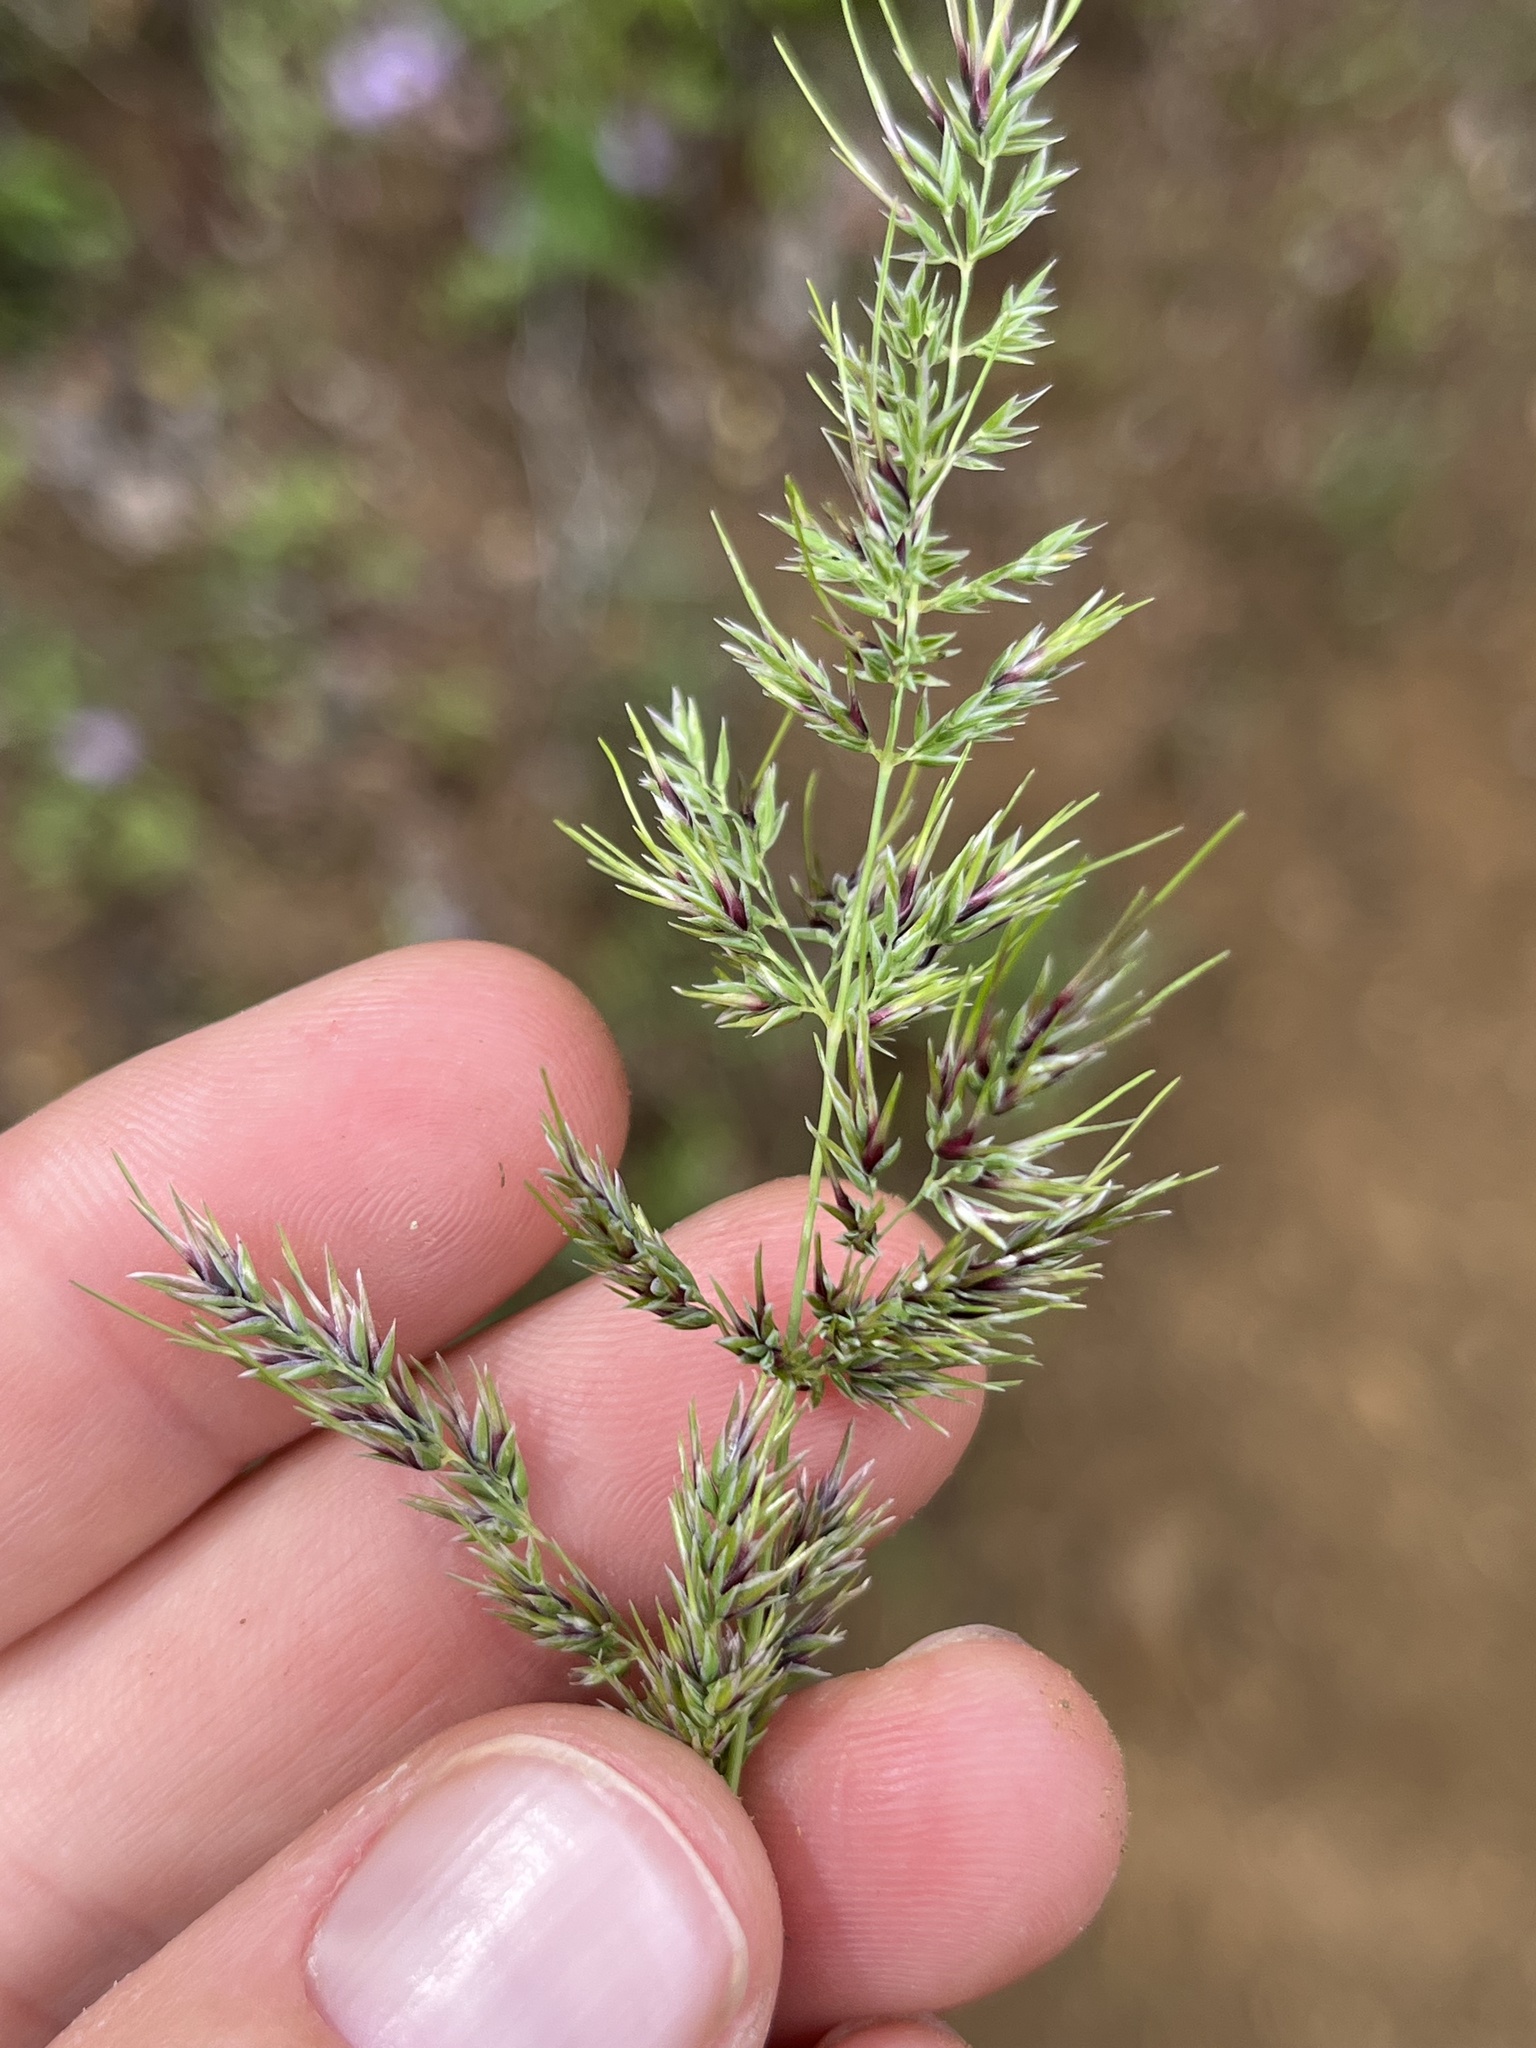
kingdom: Plantae
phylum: Tracheophyta
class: Liliopsida
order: Poales
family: Poaceae
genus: Poa
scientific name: Poa bulbosa
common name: Bulbous bluegrass
